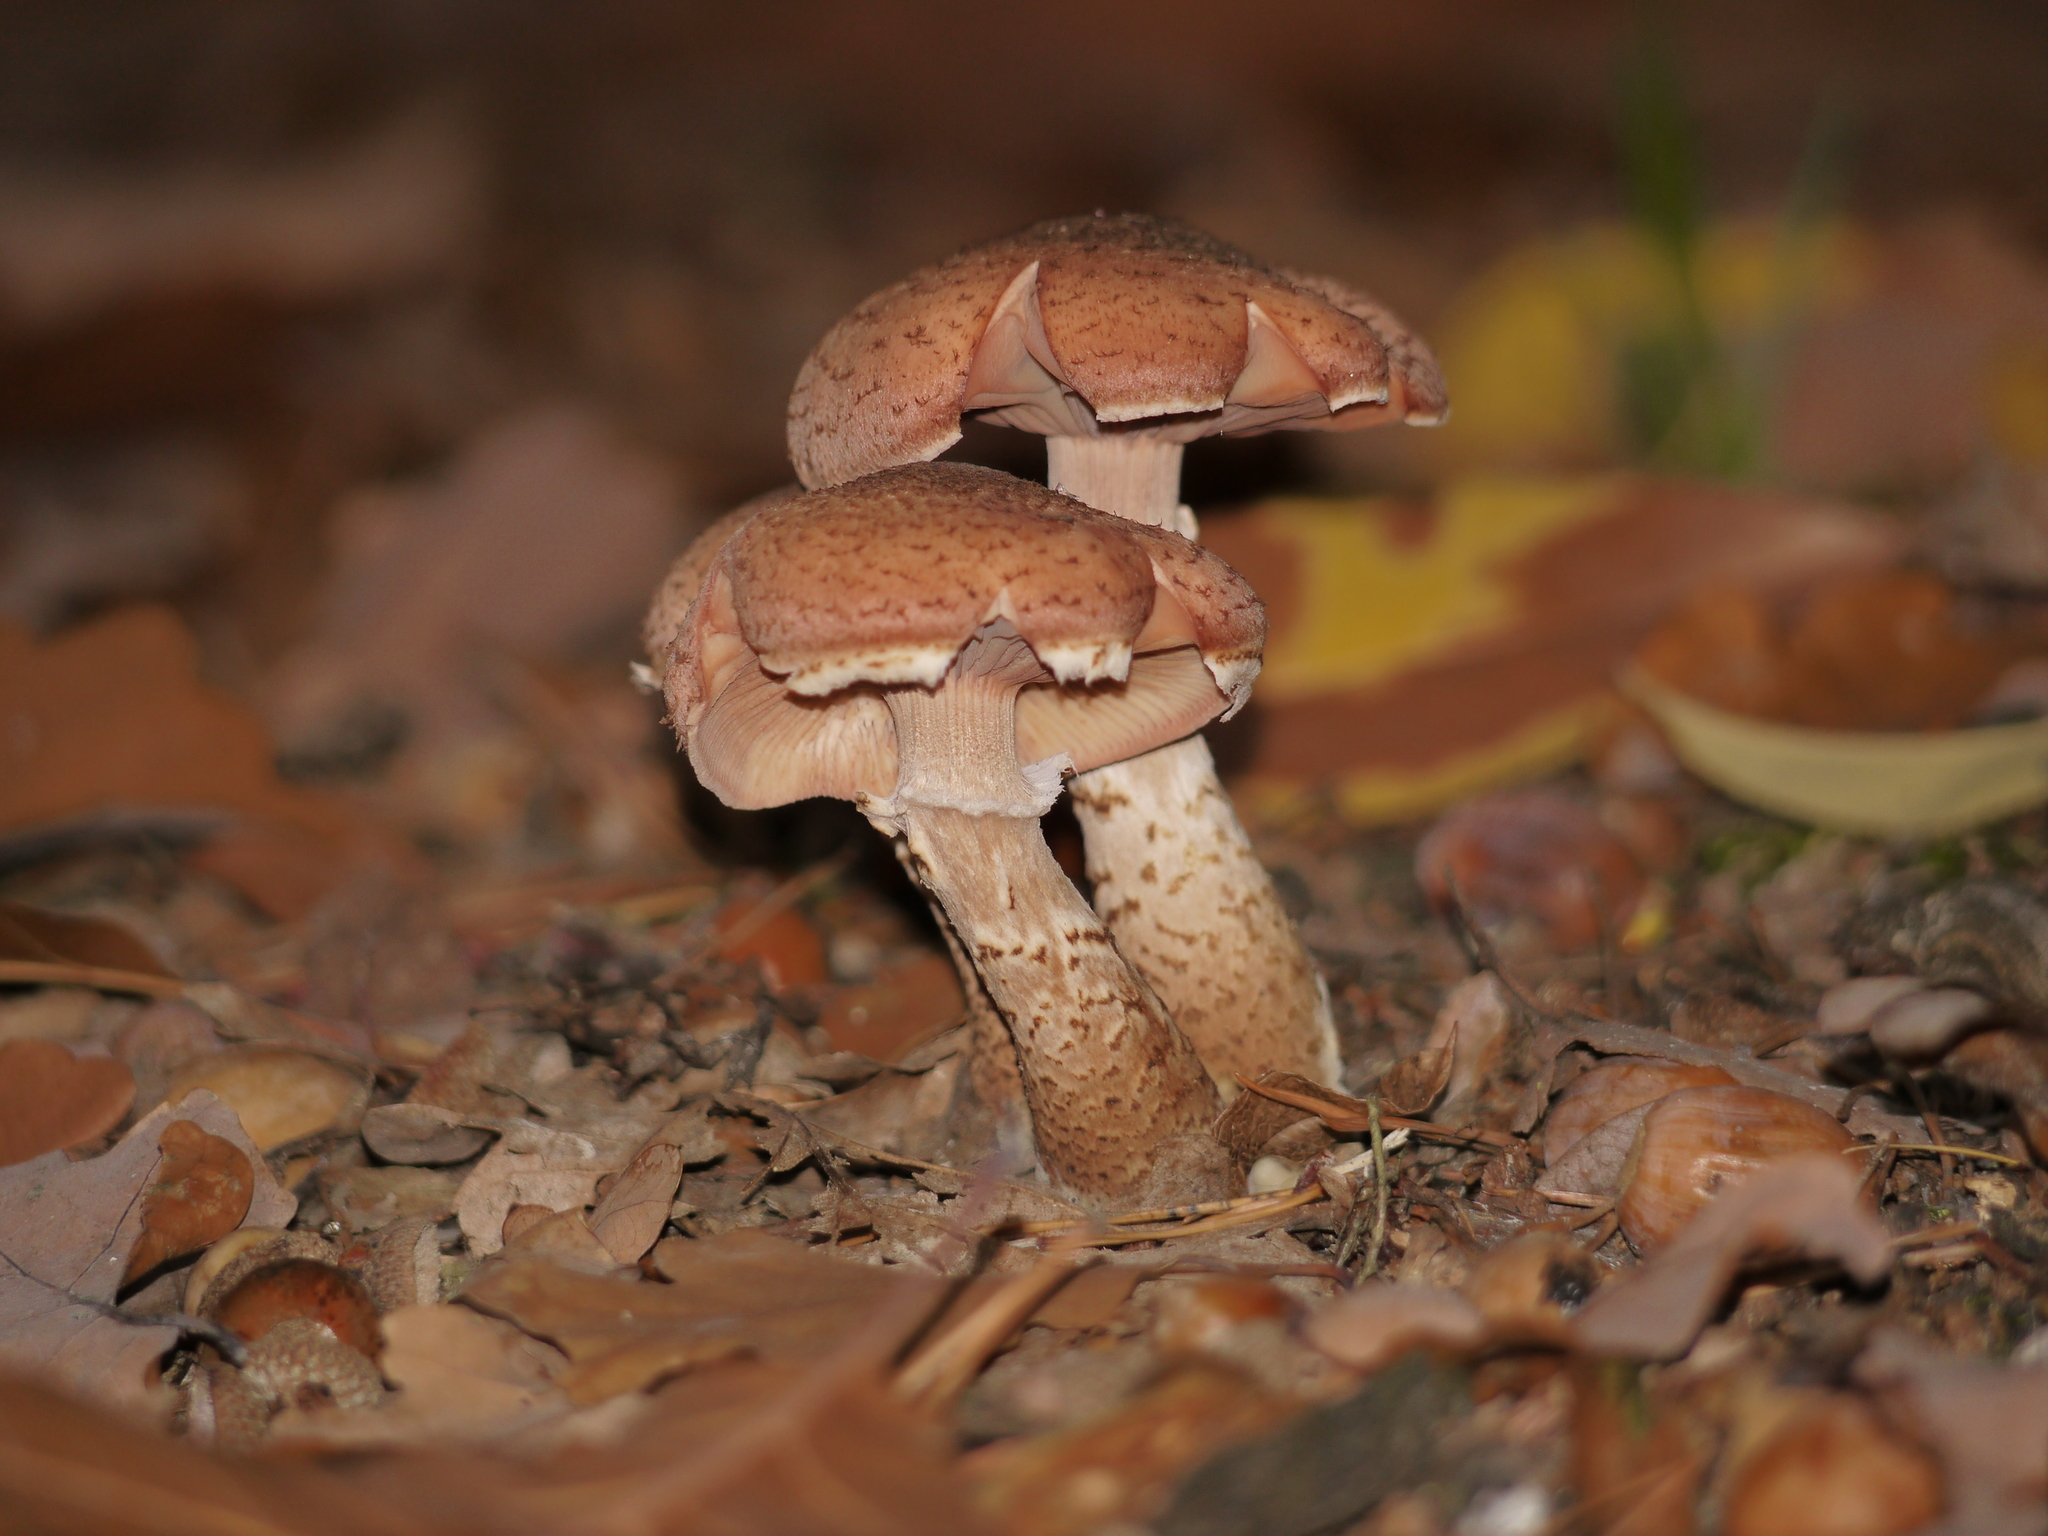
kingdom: Fungi
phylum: Basidiomycota
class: Agaricomycetes
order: Agaricales
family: Physalacriaceae
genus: Armillaria
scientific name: Armillaria mellea
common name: Honey fungus
